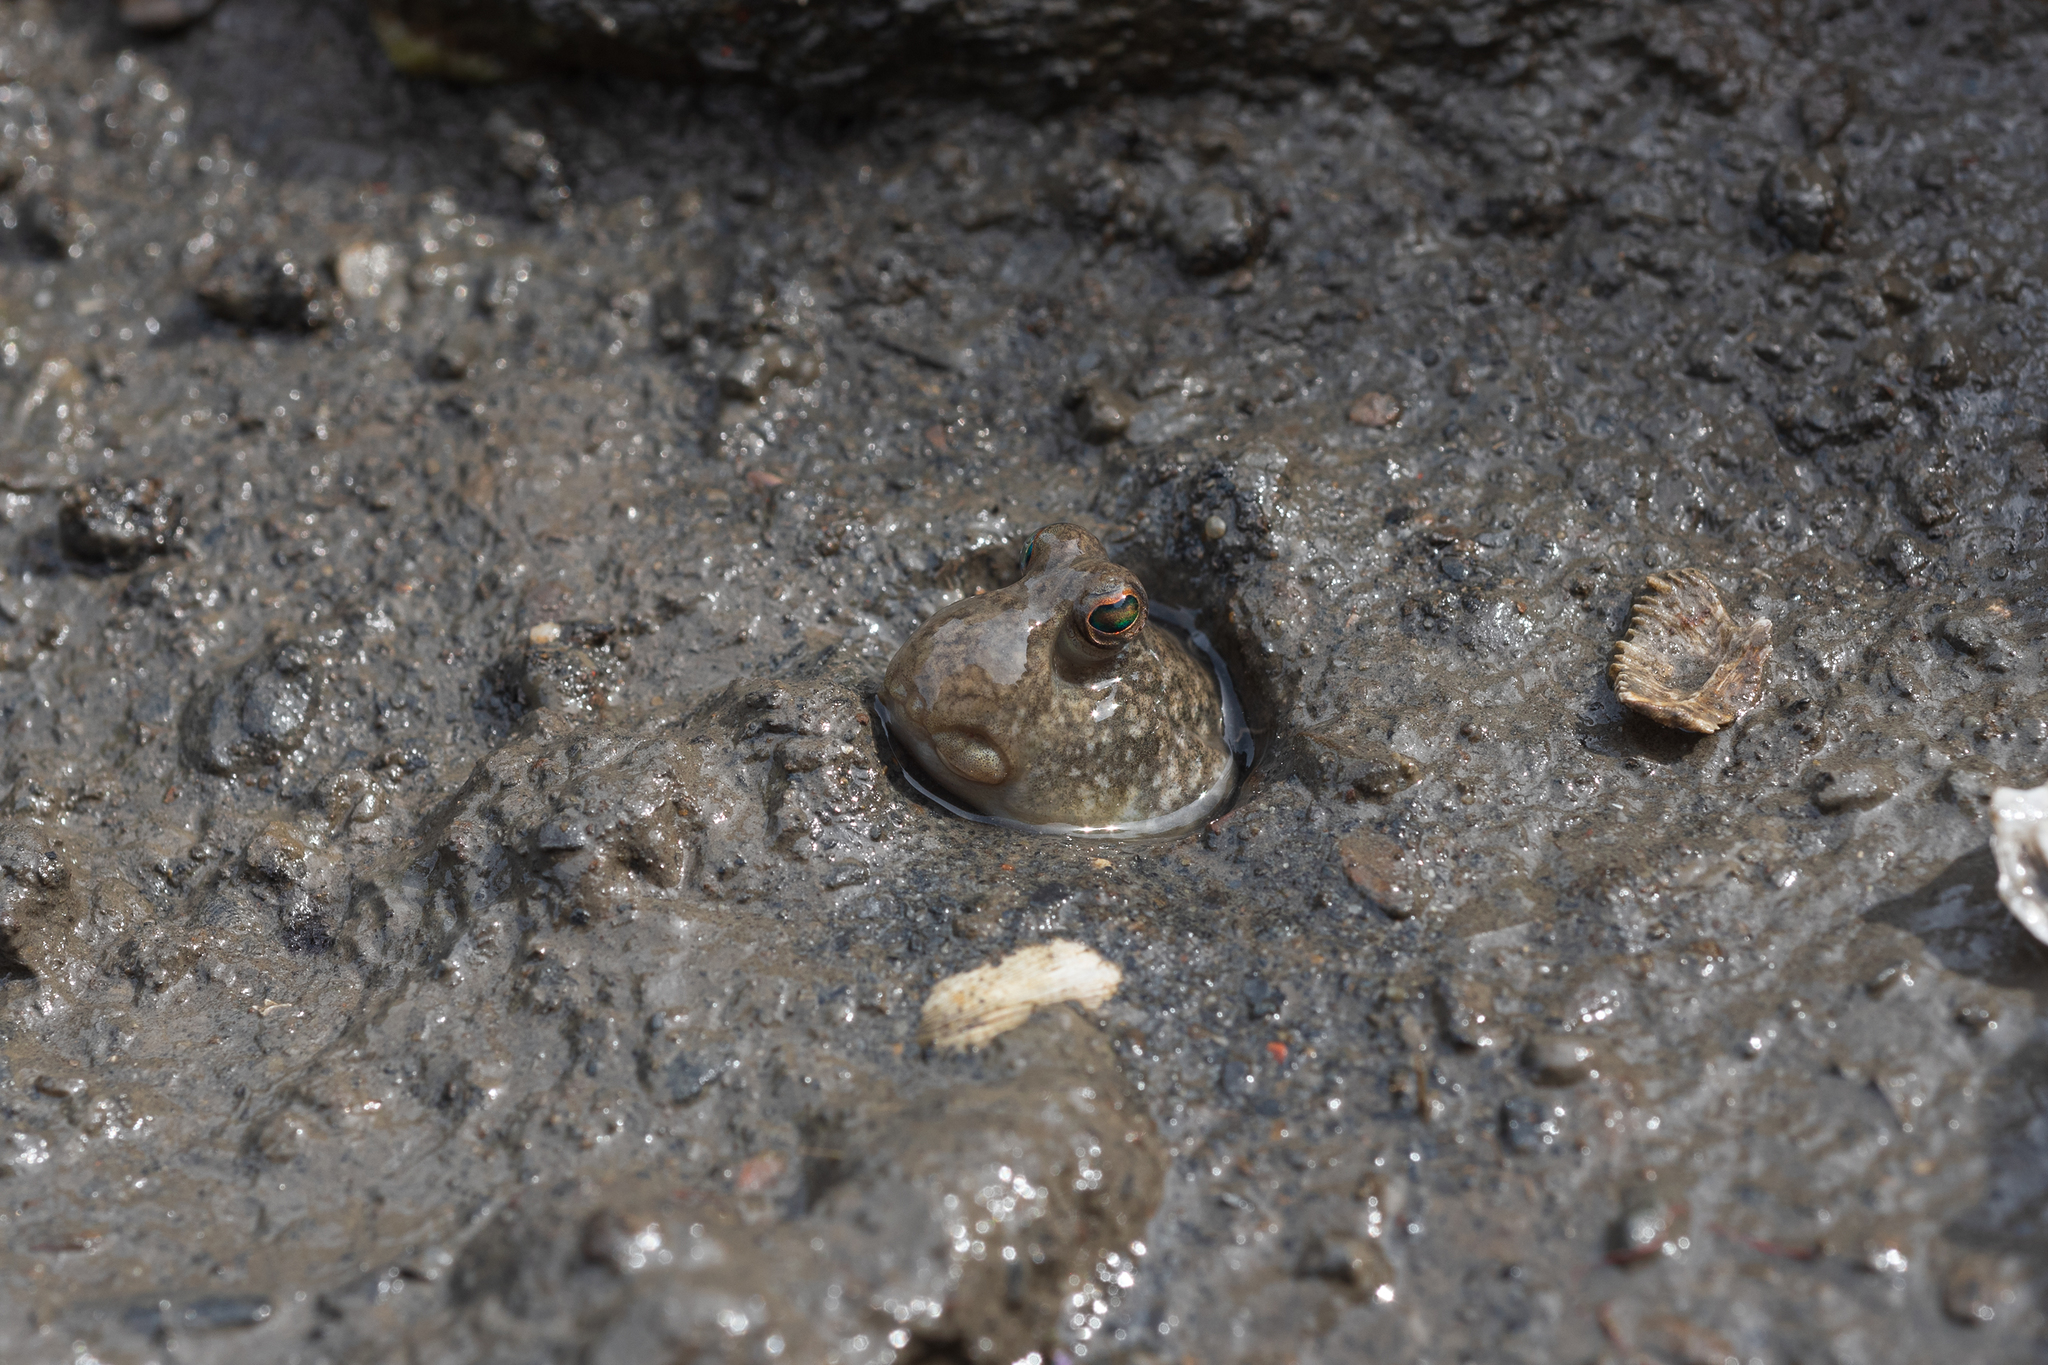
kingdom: Animalia
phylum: Chordata
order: Perciformes
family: Gobiidae
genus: Periophthalmus
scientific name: Periophthalmus modestus
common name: Black goby
